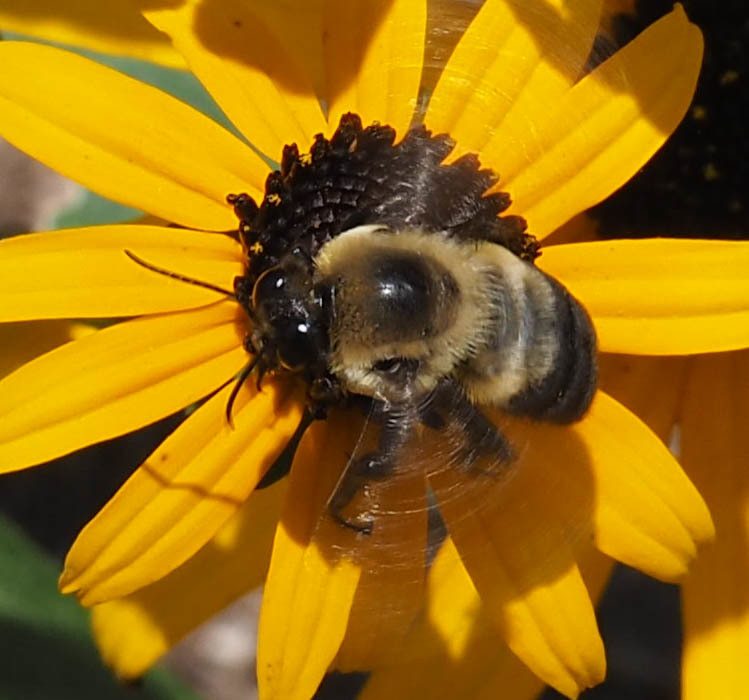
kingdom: Animalia
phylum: Arthropoda
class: Insecta
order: Hymenoptera
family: Apidae
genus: Bombus
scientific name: Bombus griseocollis
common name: Brown-belted bumble bee
